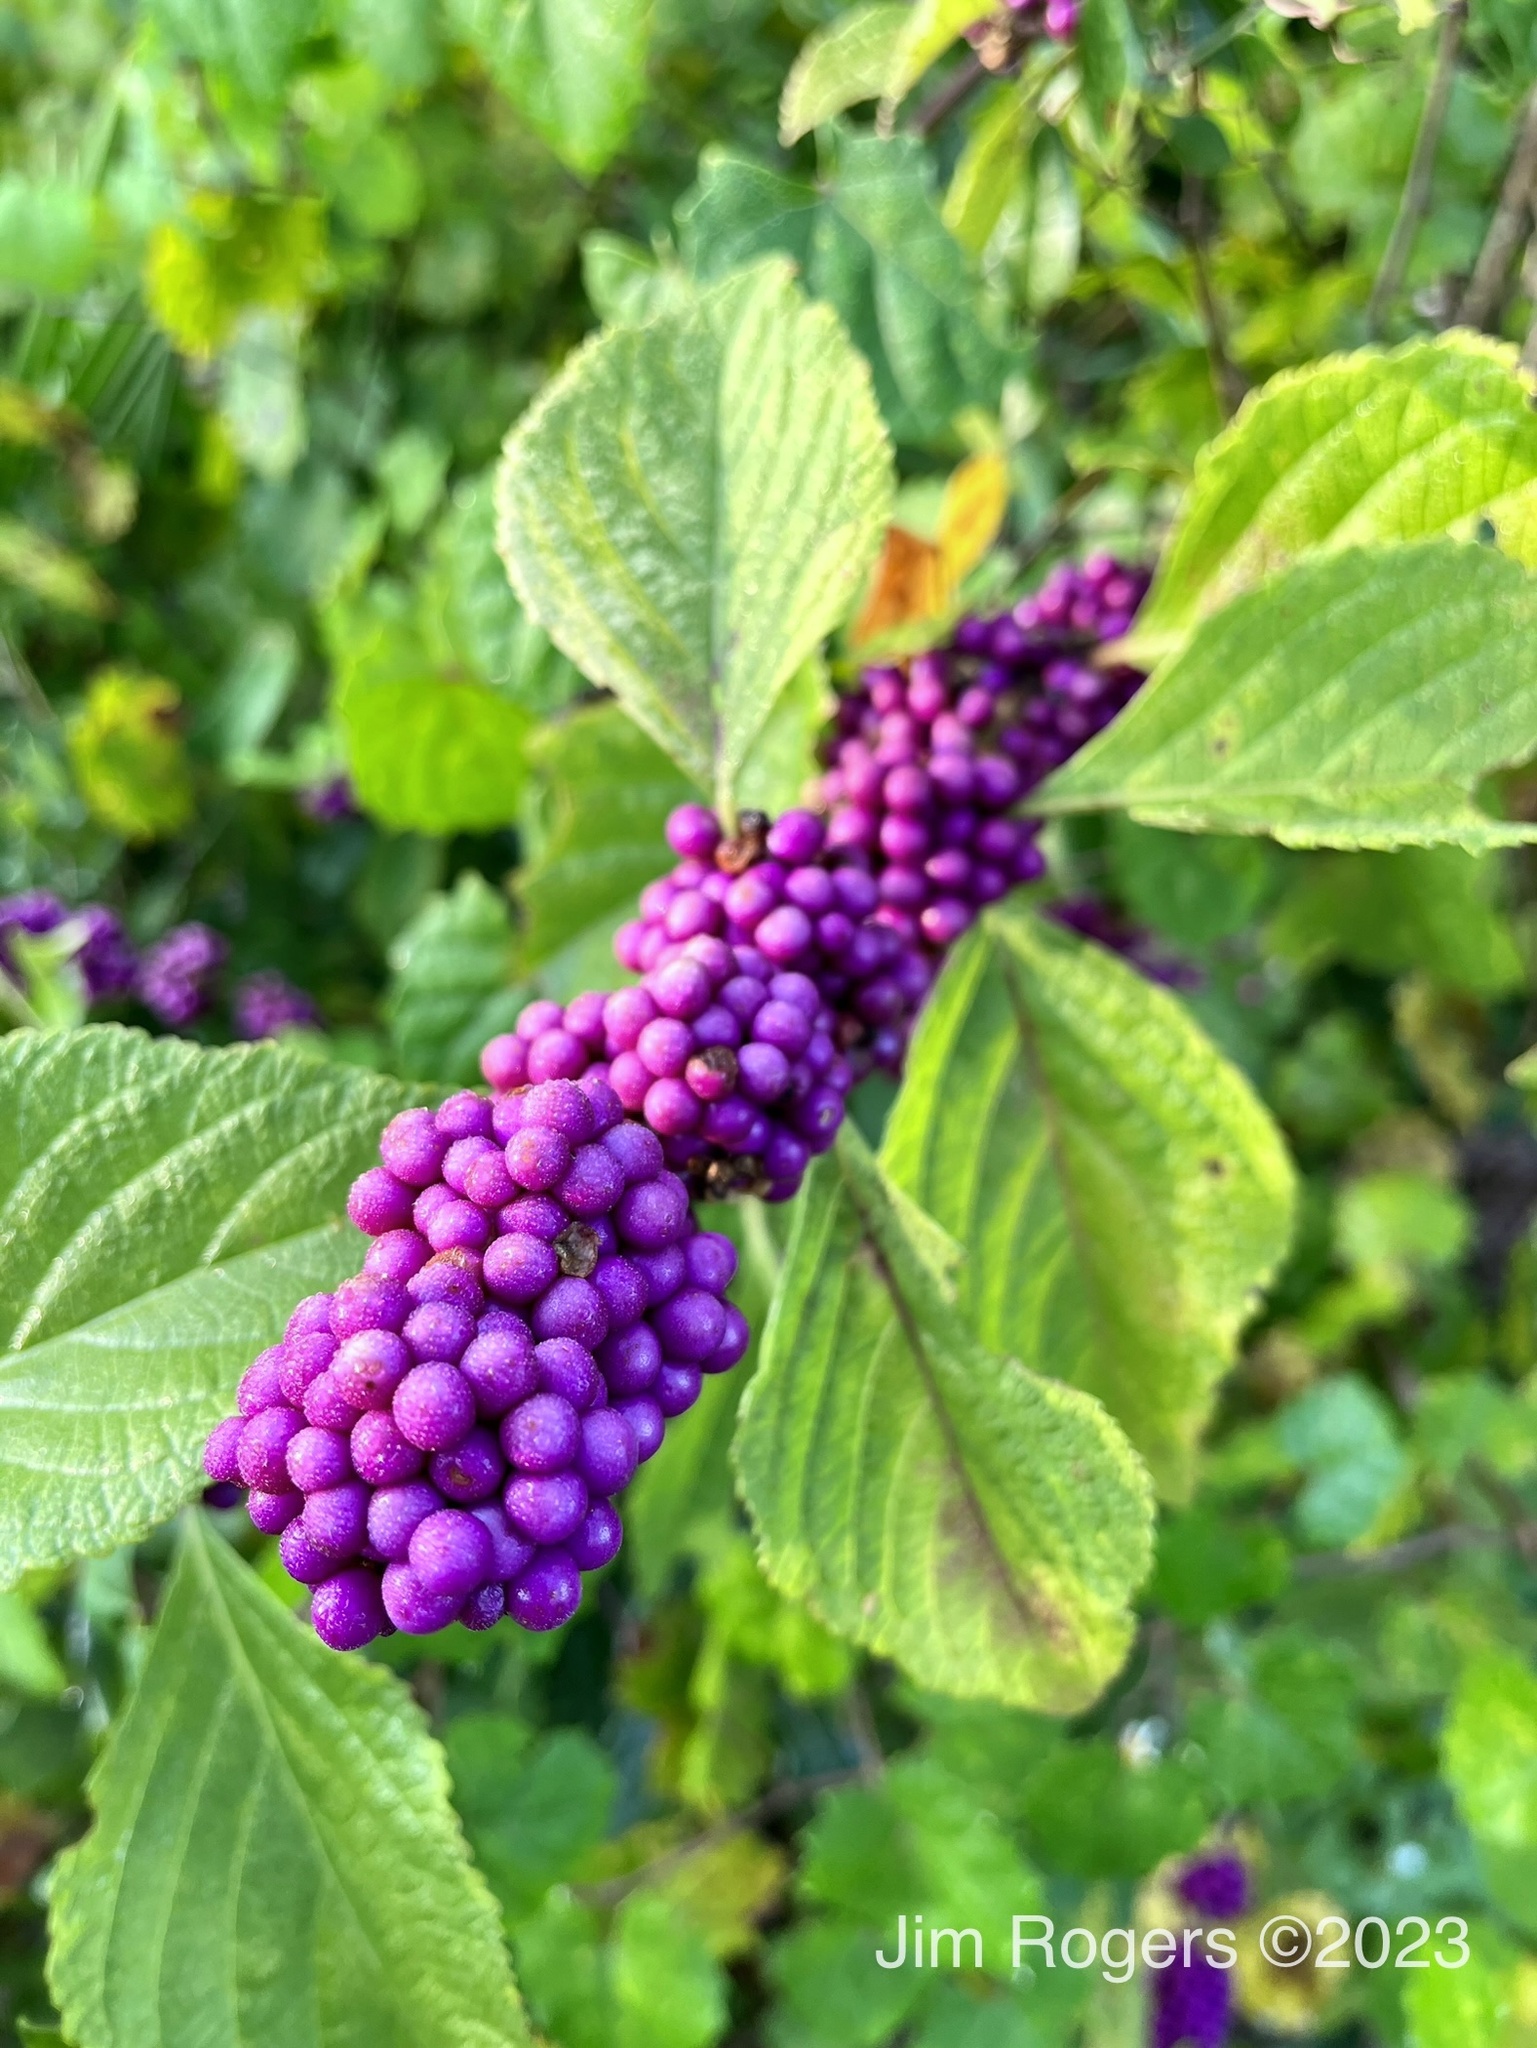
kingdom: Plantae
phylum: Tracheophyta
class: Magnoliopsida
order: Lamiales
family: Lamiaceae
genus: Callicarpa
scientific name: Callicarpa americana
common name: American beautyberry
